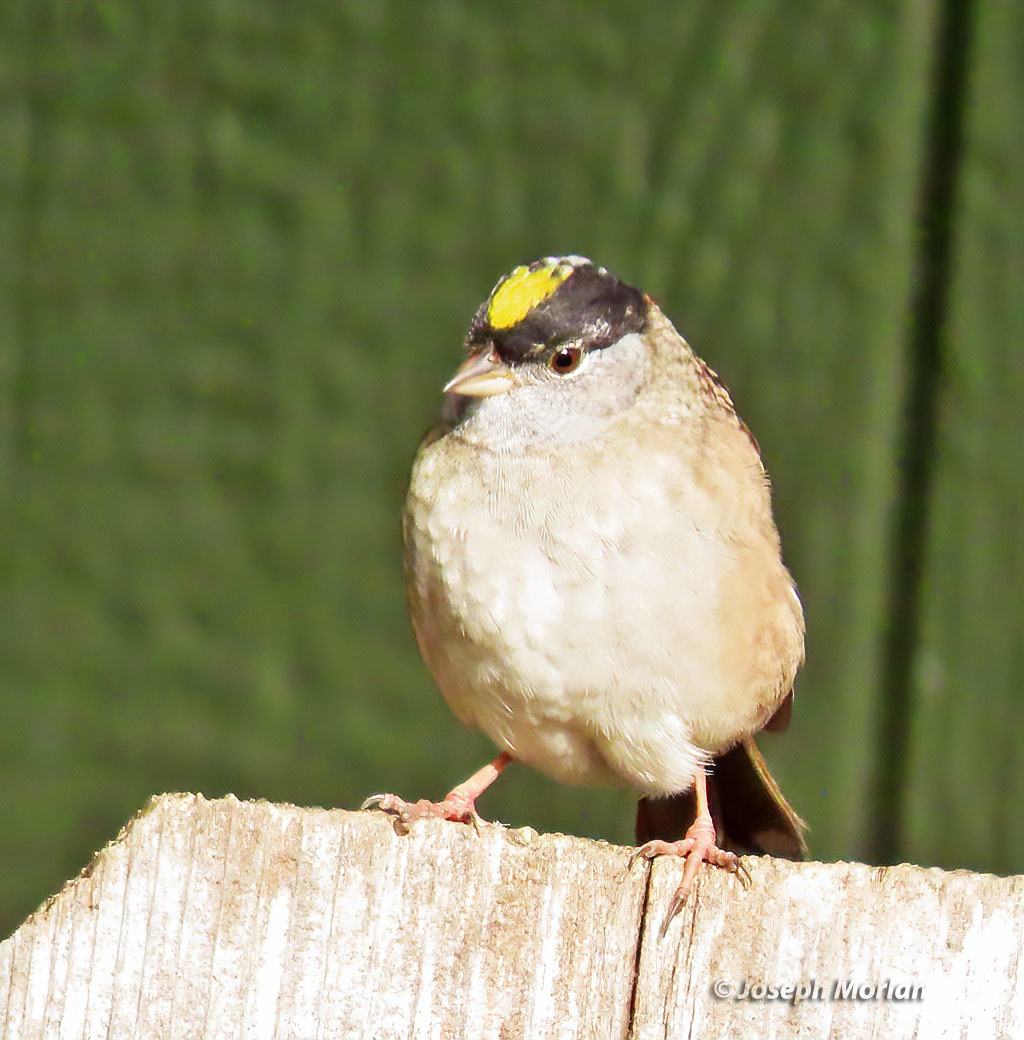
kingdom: Animalia
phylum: Chordata
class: Aves
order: Passeriformes
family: Passerellidae
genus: Zonotrichia
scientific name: Zonotrichia atricapilla
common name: Golden-crowned sparrow
